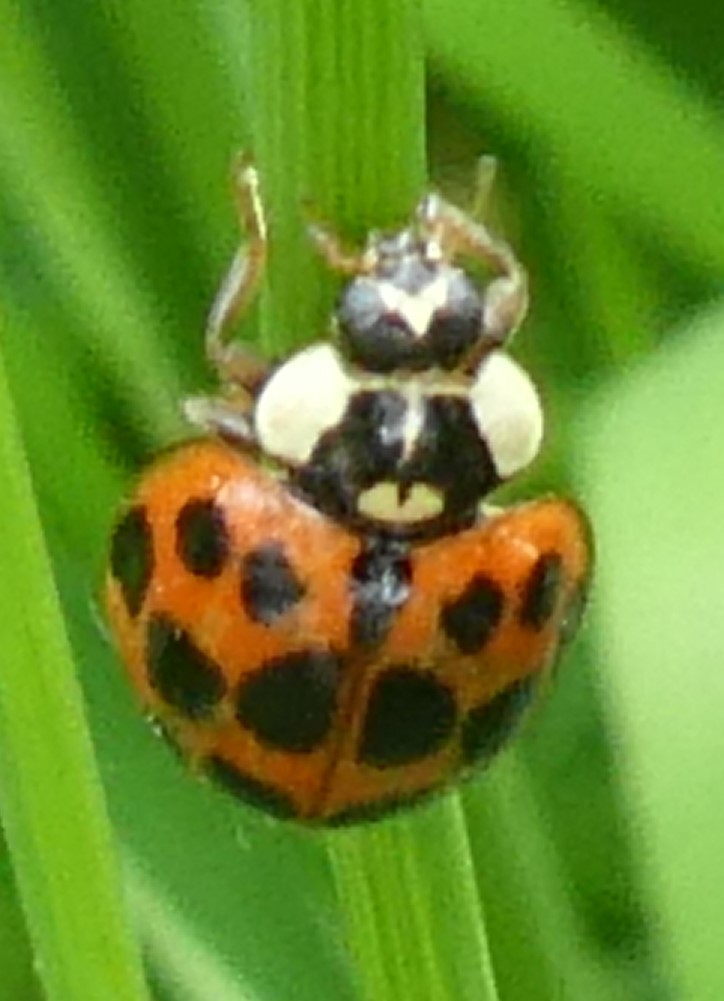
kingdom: Animalia
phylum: Arthropoda
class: Insecta
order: Coleoptera
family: Coccinellidae
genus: Harmonia
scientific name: Harmonia axyridis
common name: Harlequin ladybird
